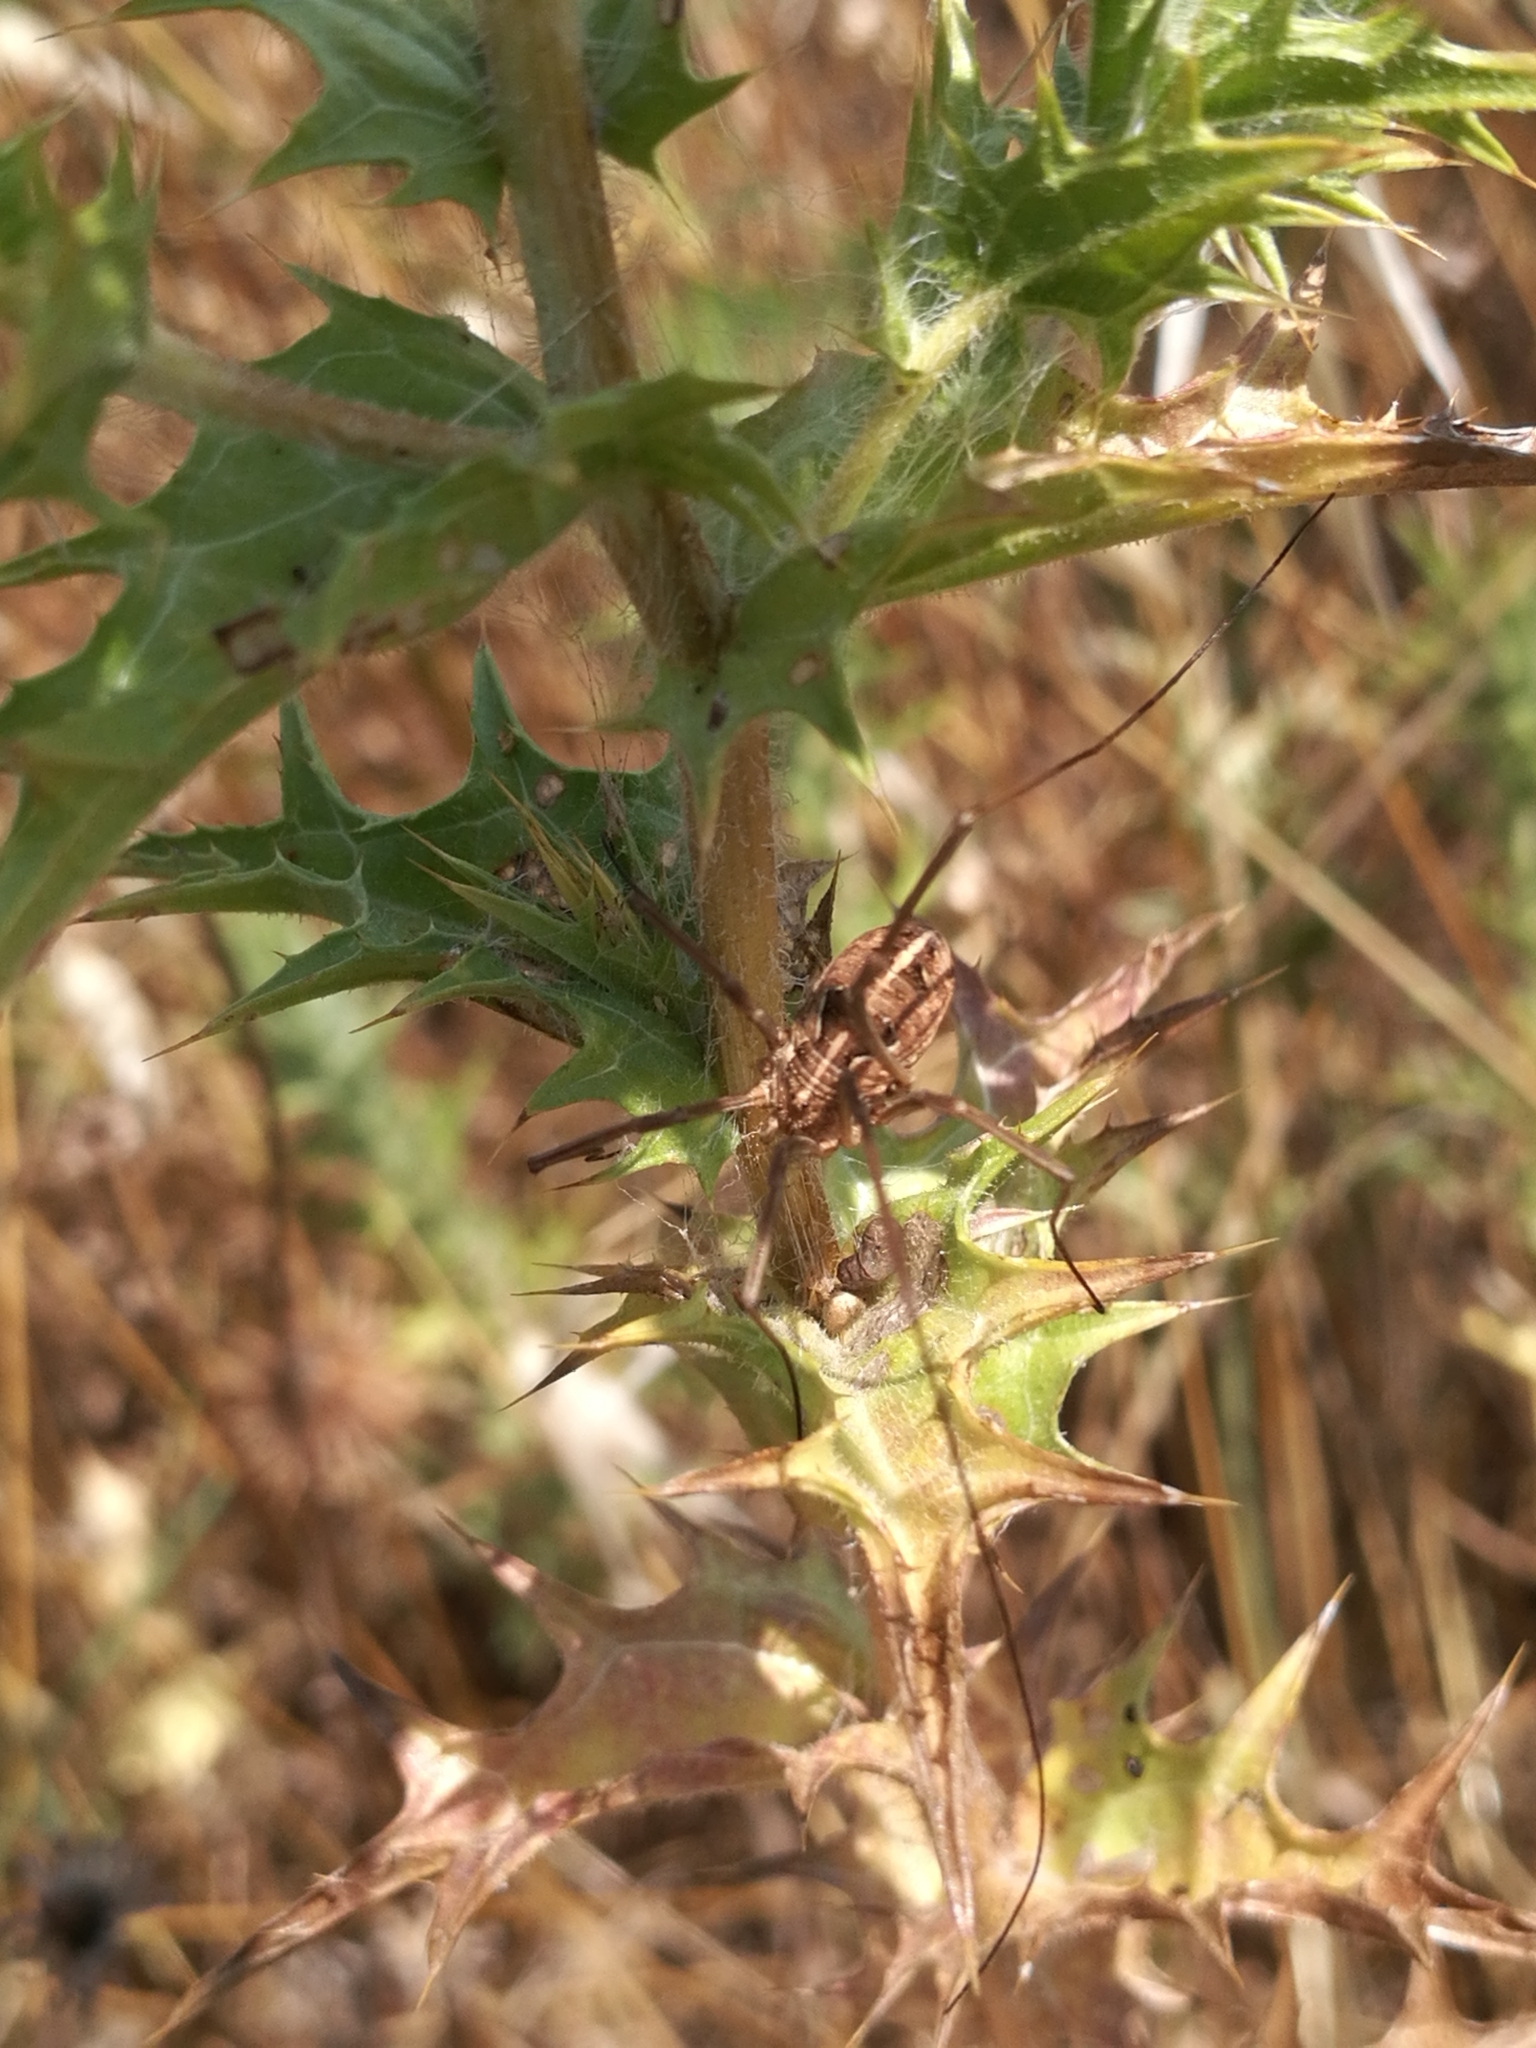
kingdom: Animalia
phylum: Arthropoda
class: Arachnida
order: Opiliones
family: Phalangiidae
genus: Metaphalangium
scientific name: Metaphalangium cirtanum
